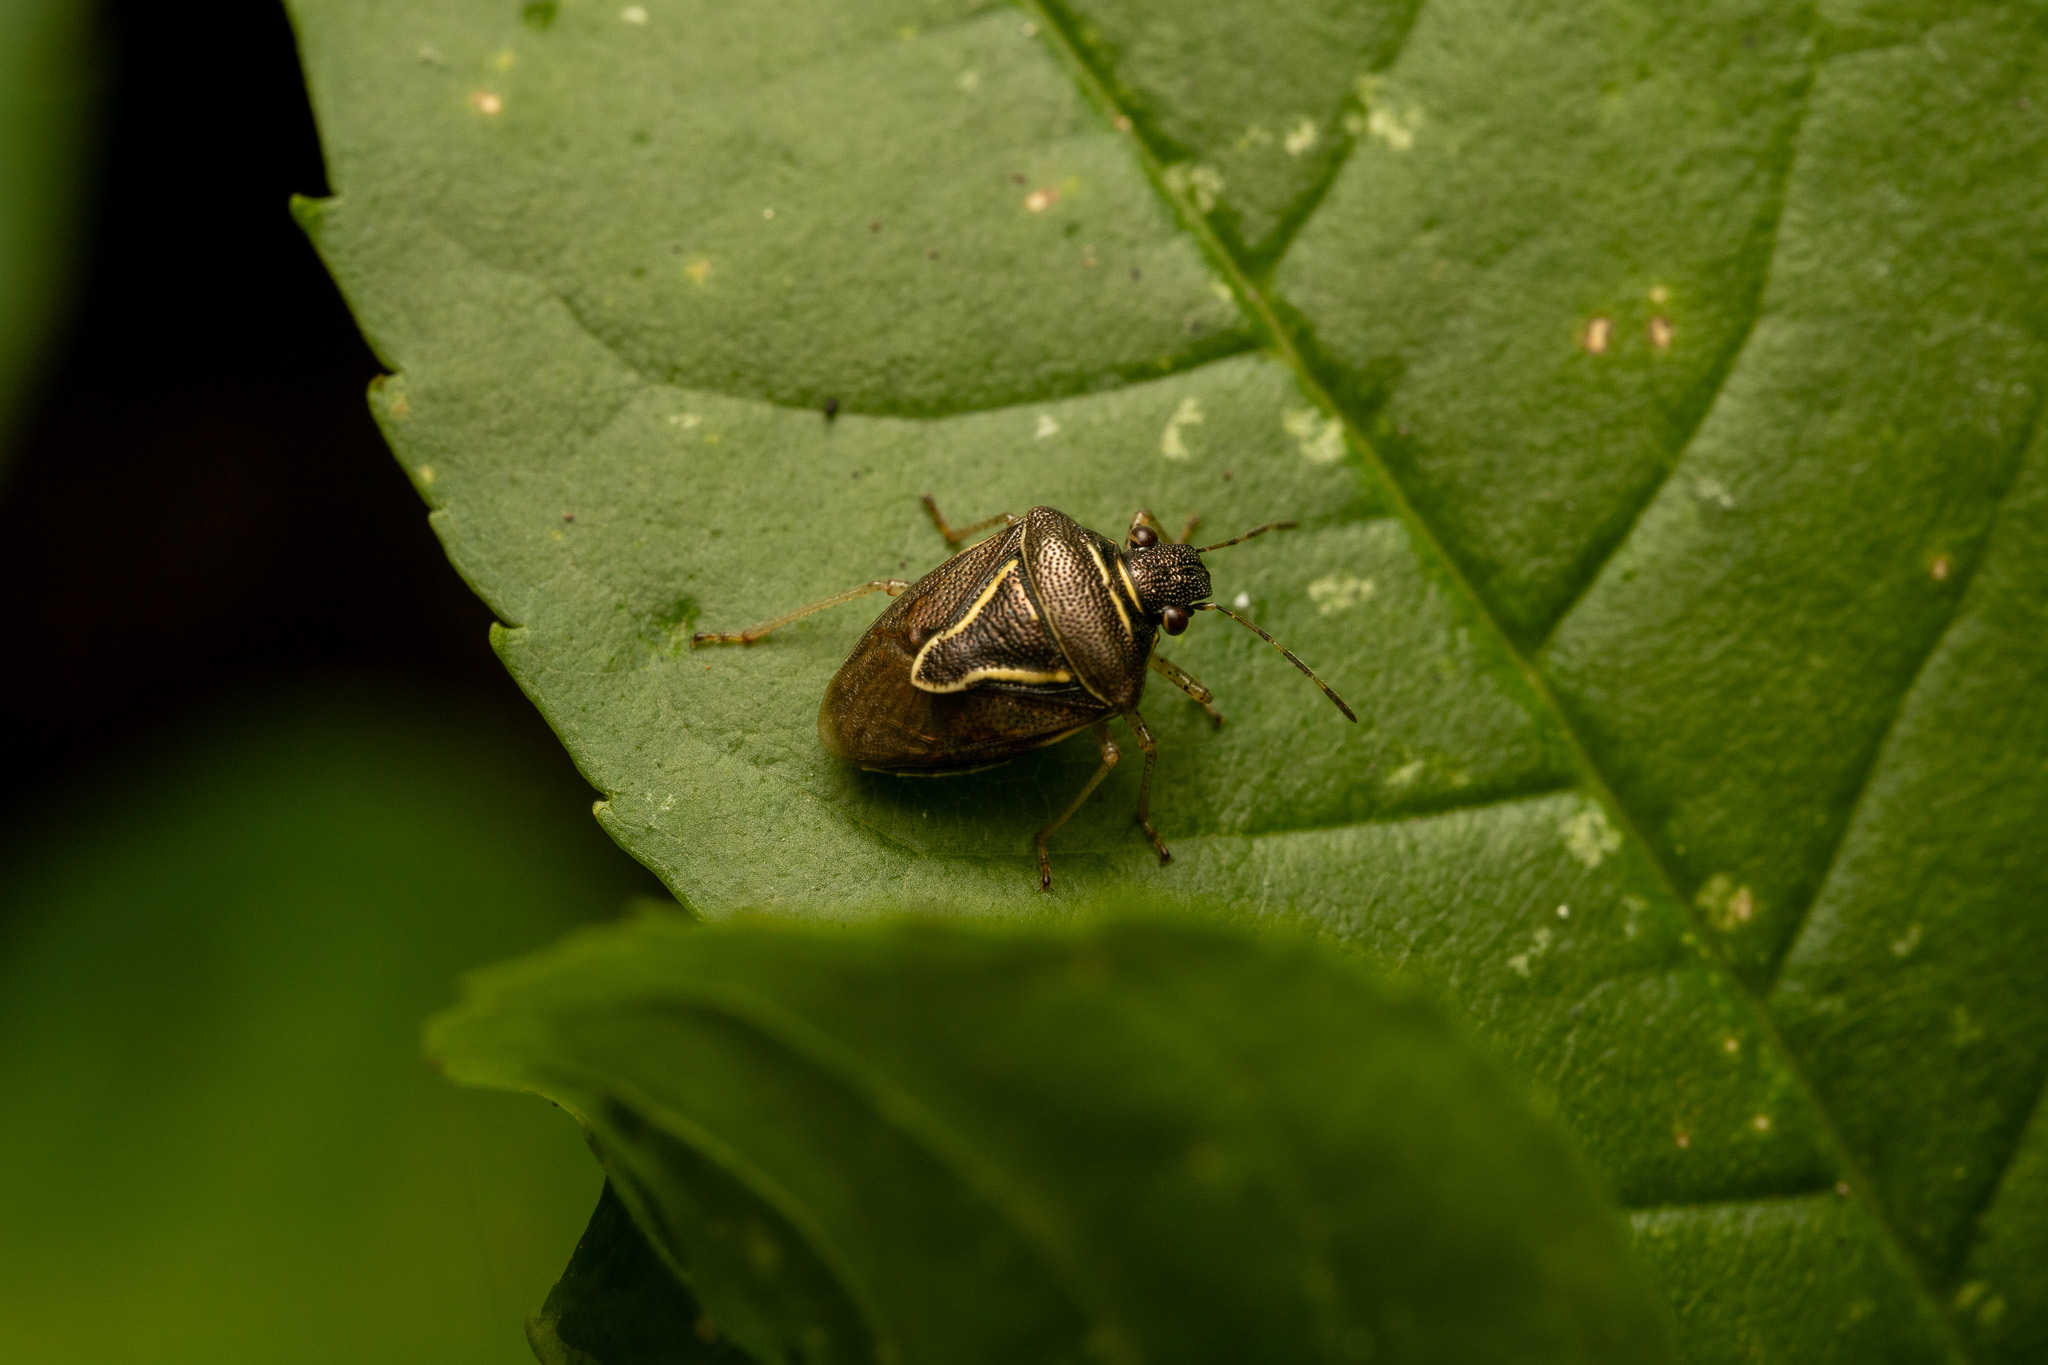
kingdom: Animalia
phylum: Arthropoda
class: Insecta
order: Hemiptera
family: Pentatomidae
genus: Mormidea
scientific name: Mormidea lugens
